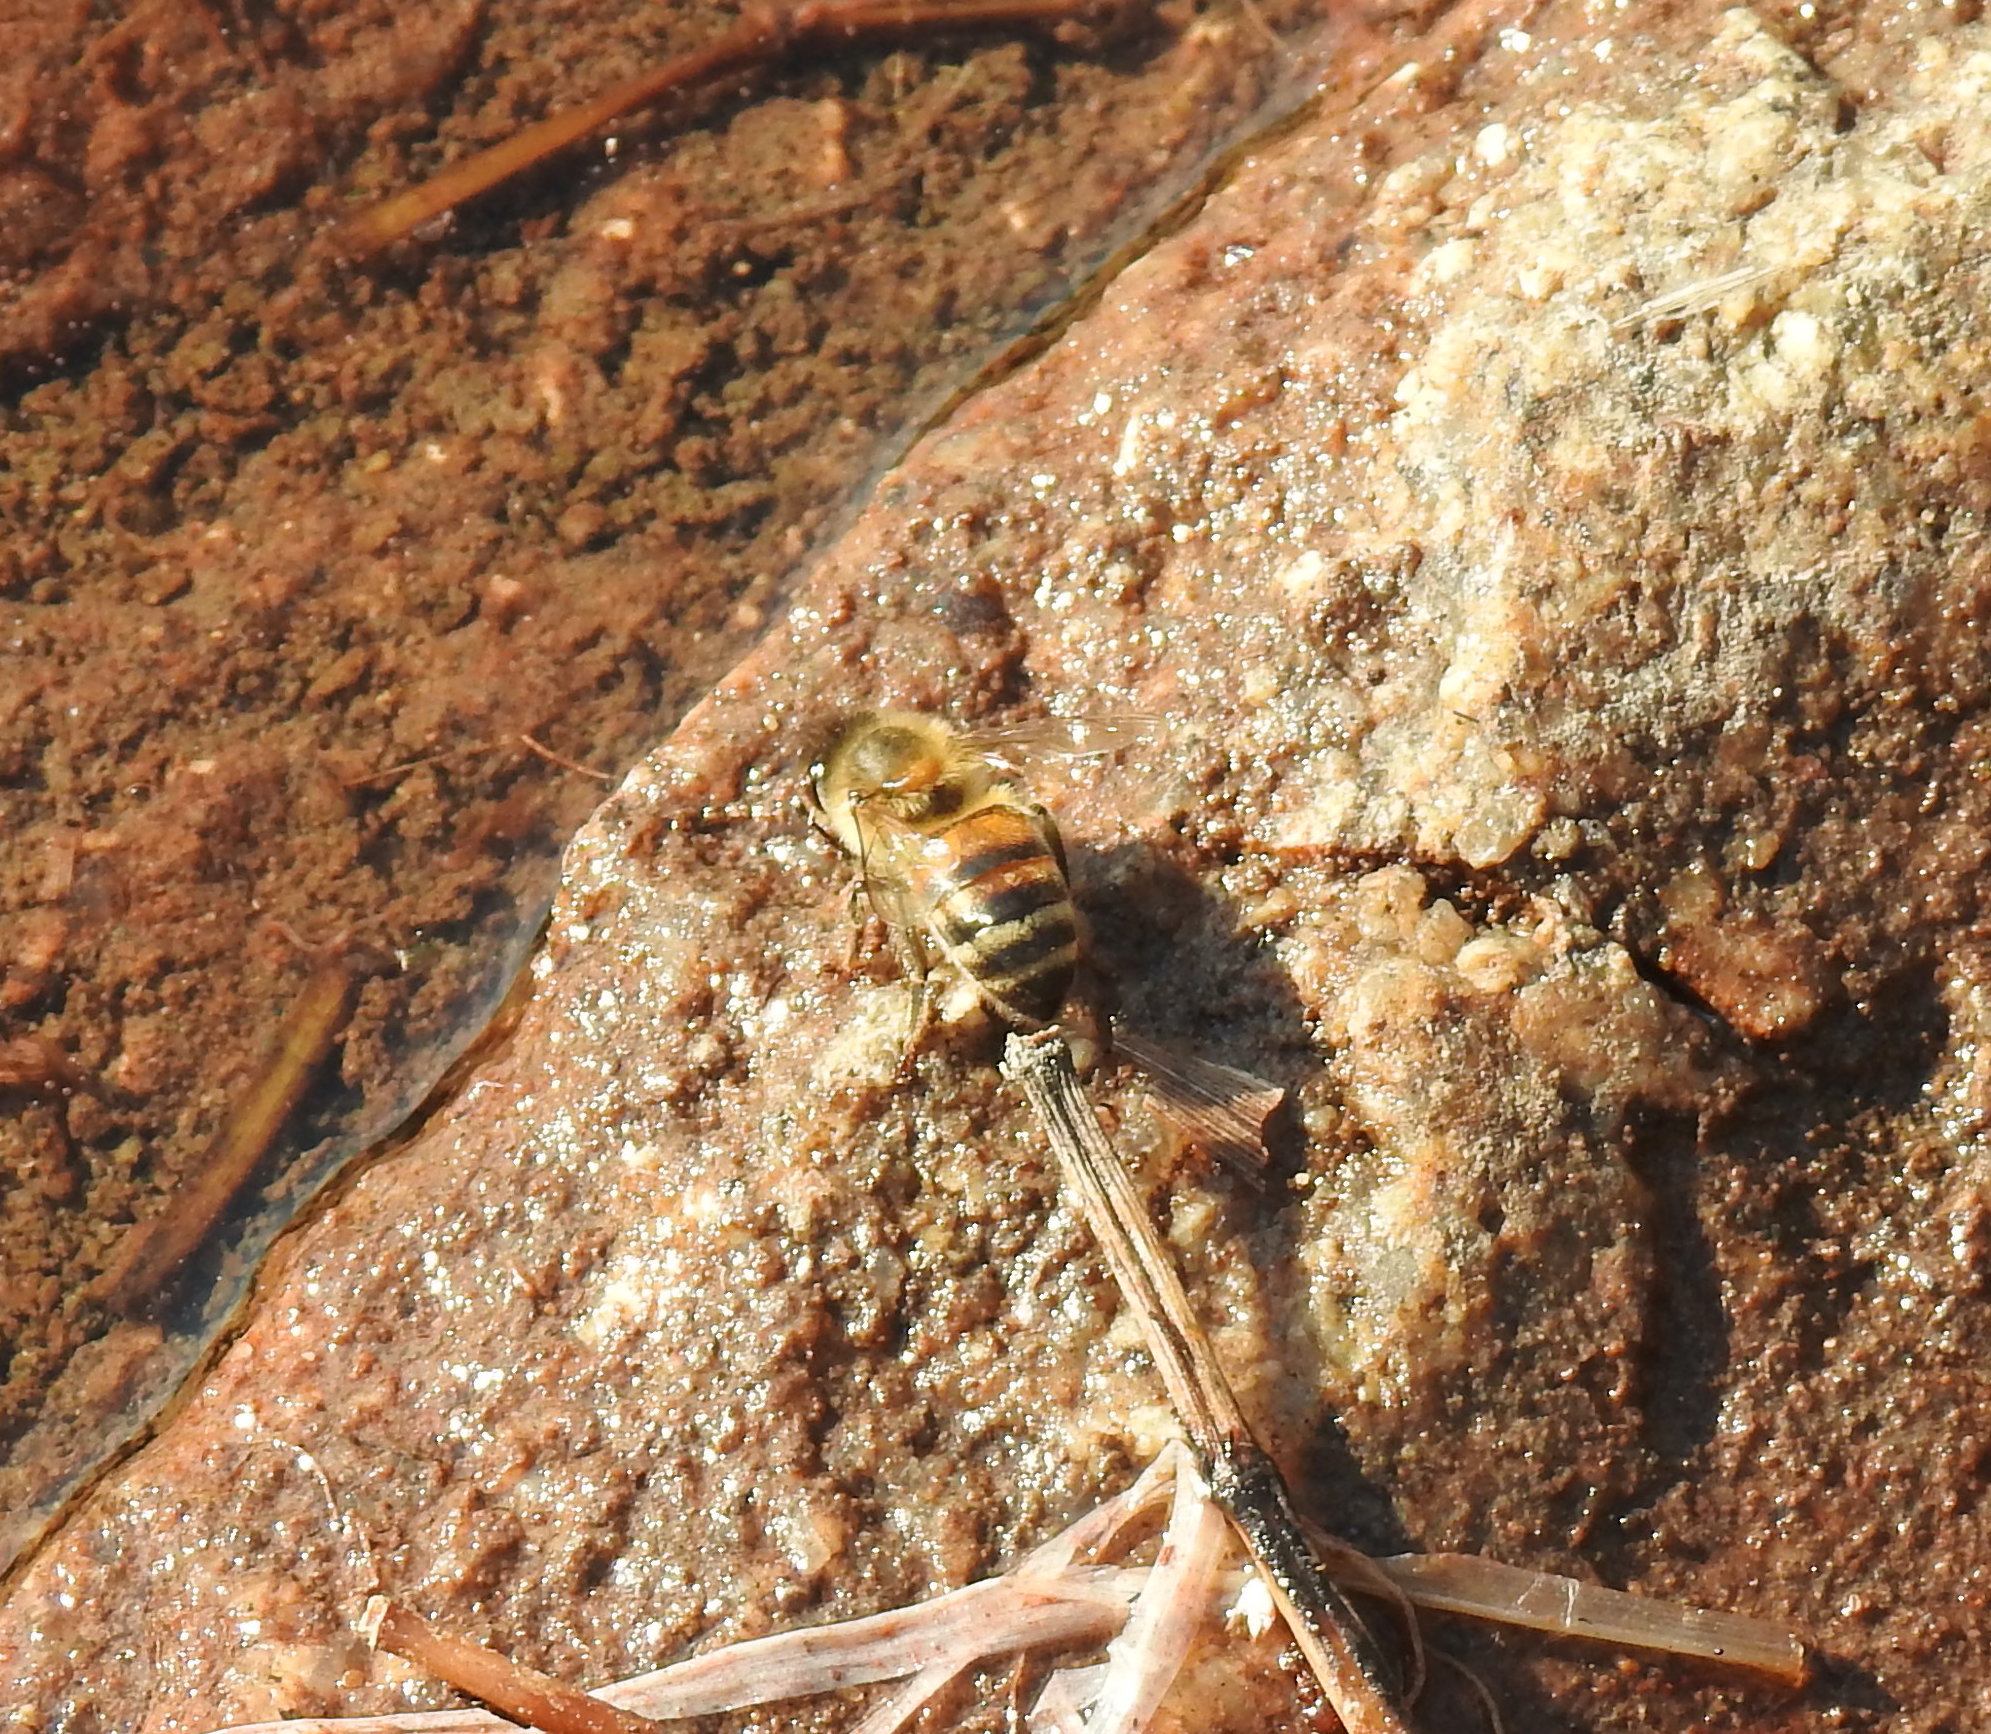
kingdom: Animalia
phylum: Arthropoda
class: Insecta
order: Hymenoptera
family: Apidae
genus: Apis
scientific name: Apis mellifera
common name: Honey bee
